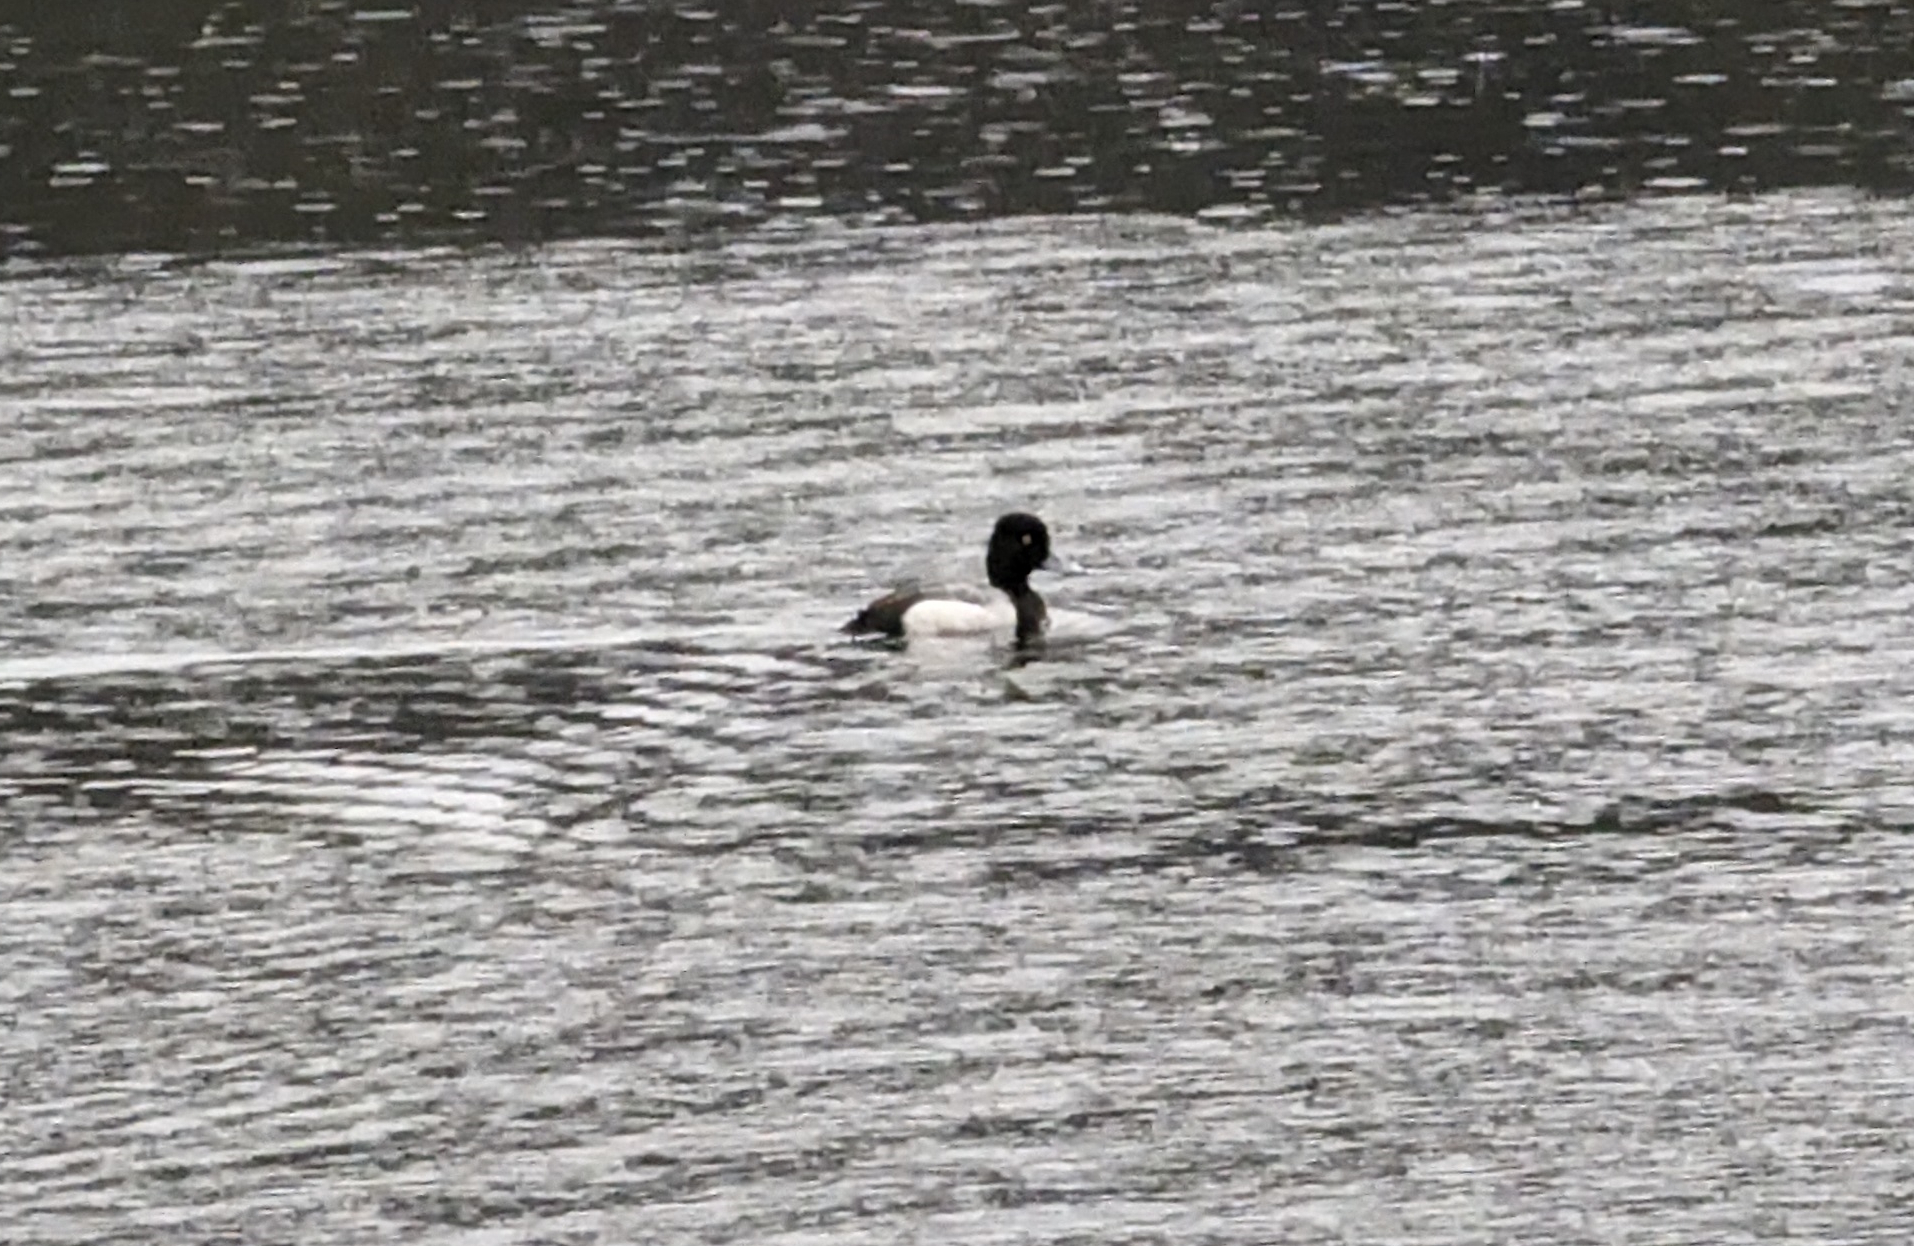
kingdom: Animalia
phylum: Chordata
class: Aves
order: Anseriformes
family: Anatidae
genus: Aythya
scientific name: Aythya affinis
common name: Lesser scaup
